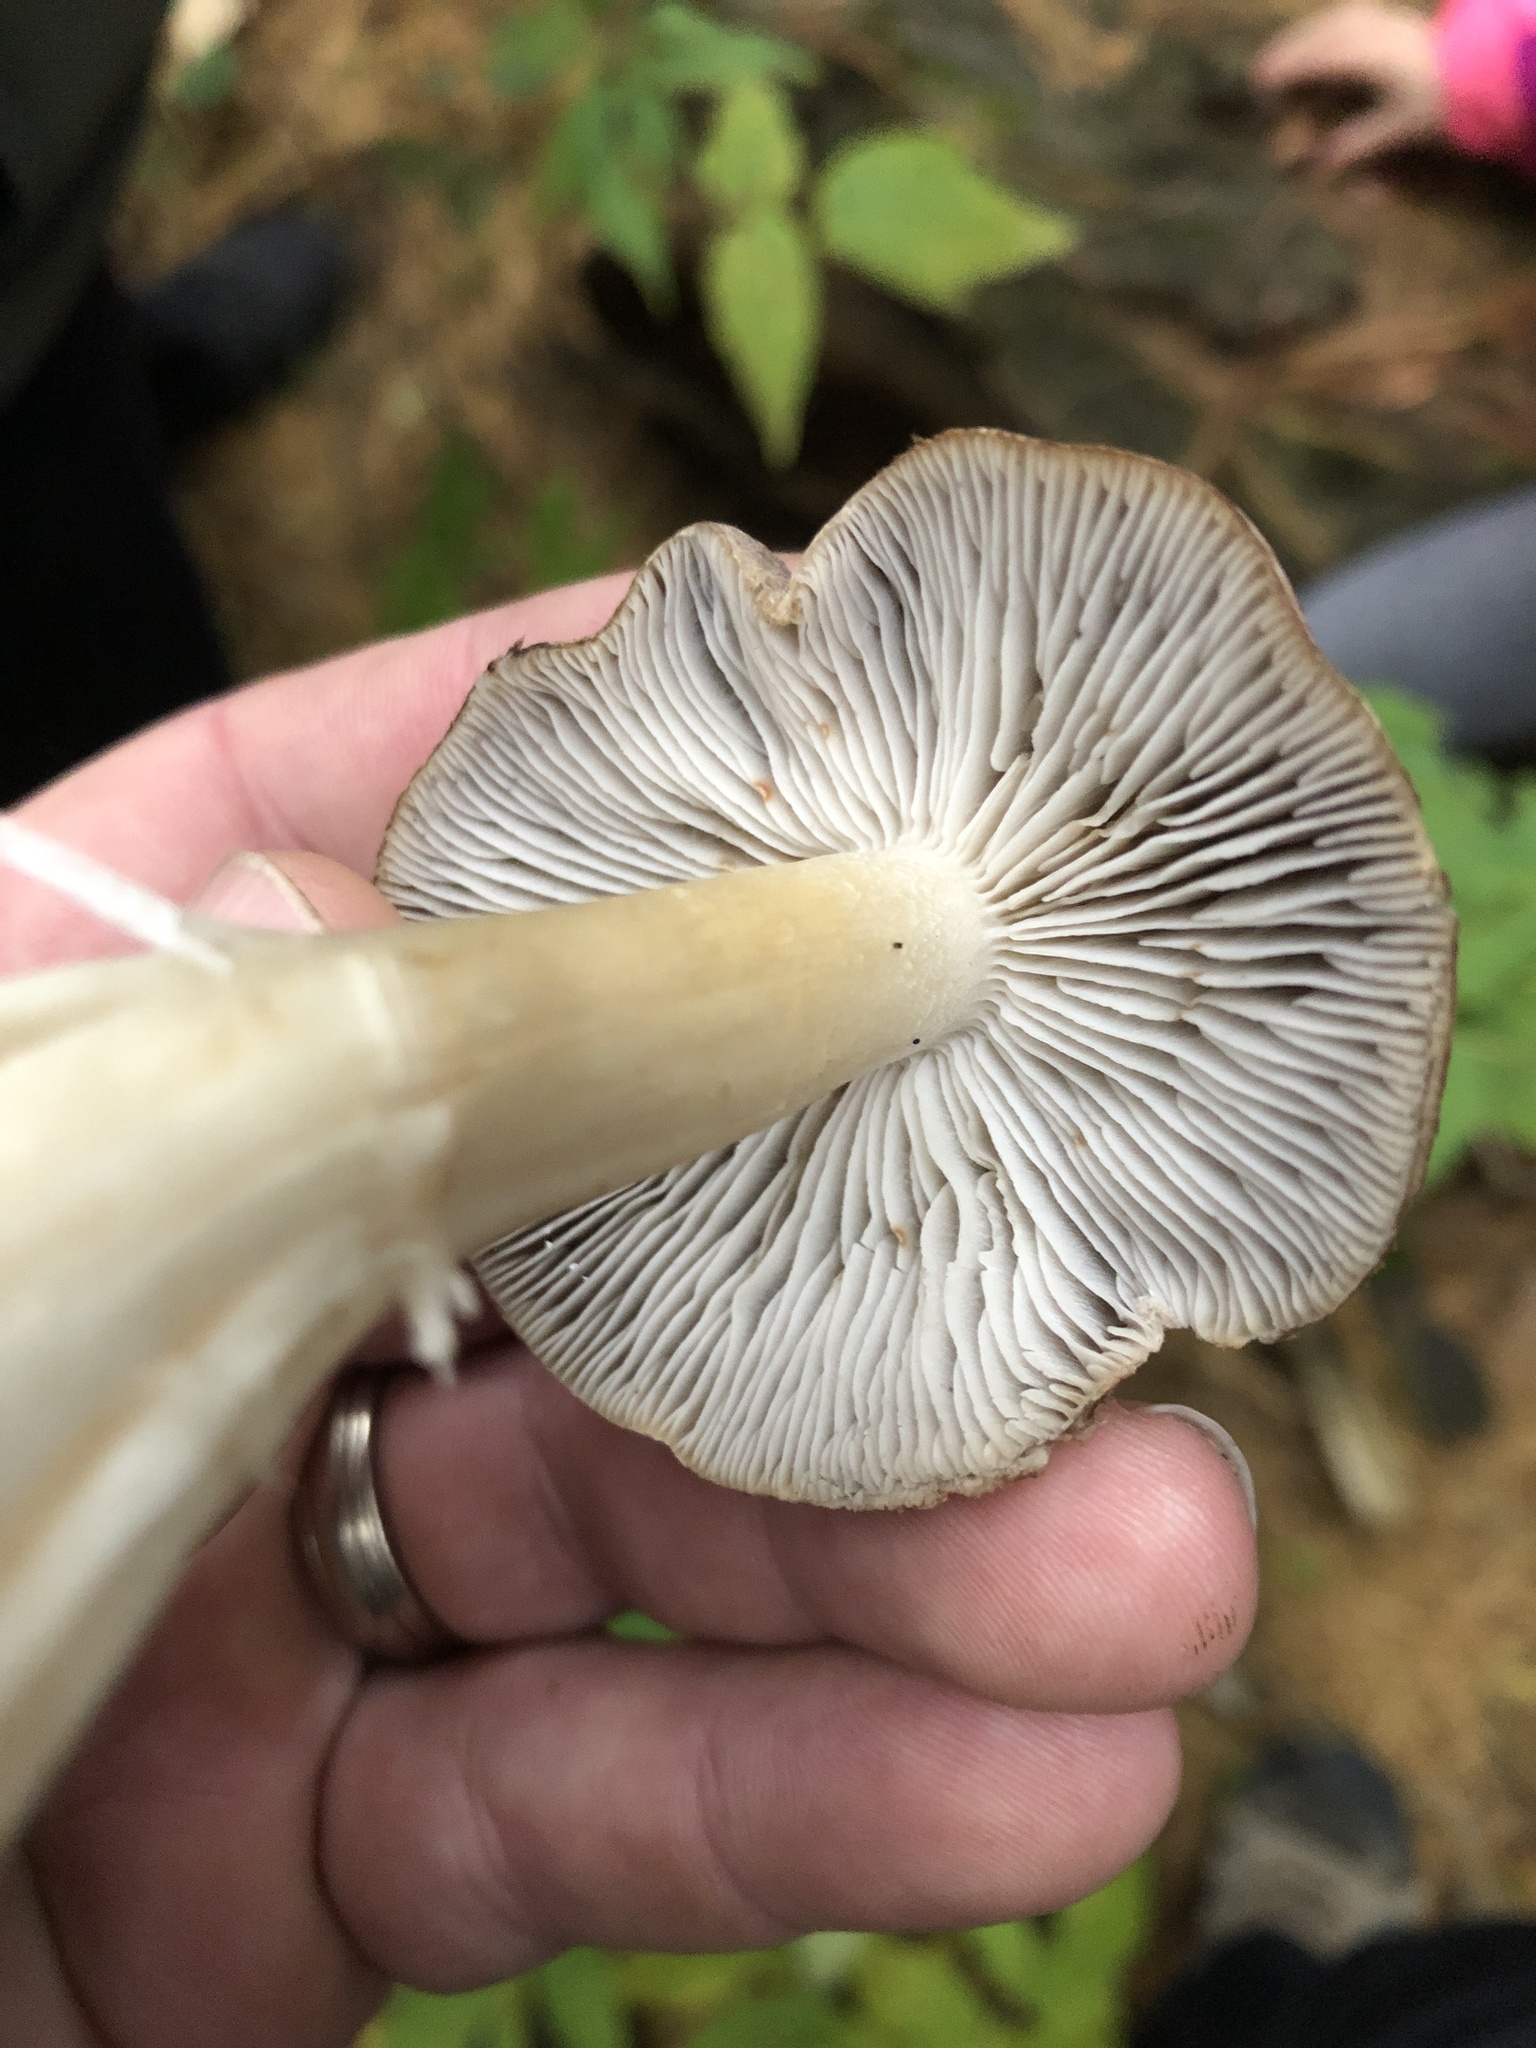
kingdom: Fungi
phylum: Basidiomycota
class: Agaricomycetes
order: Agaricales
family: Tricholomataceae
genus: Tricholoma
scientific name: Tricholoma terreum
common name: Grey knight
